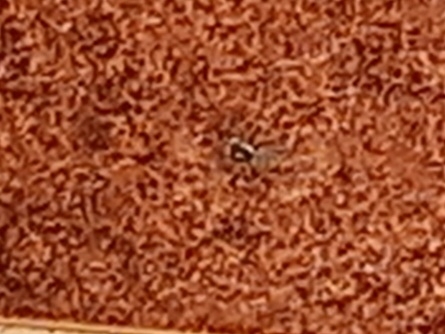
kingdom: Animalia
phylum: Arthropoda
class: Arachnida
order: Araneae
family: Salticidae
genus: Menemerus
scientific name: Menemerus semilimbatus
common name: Jumping spider
